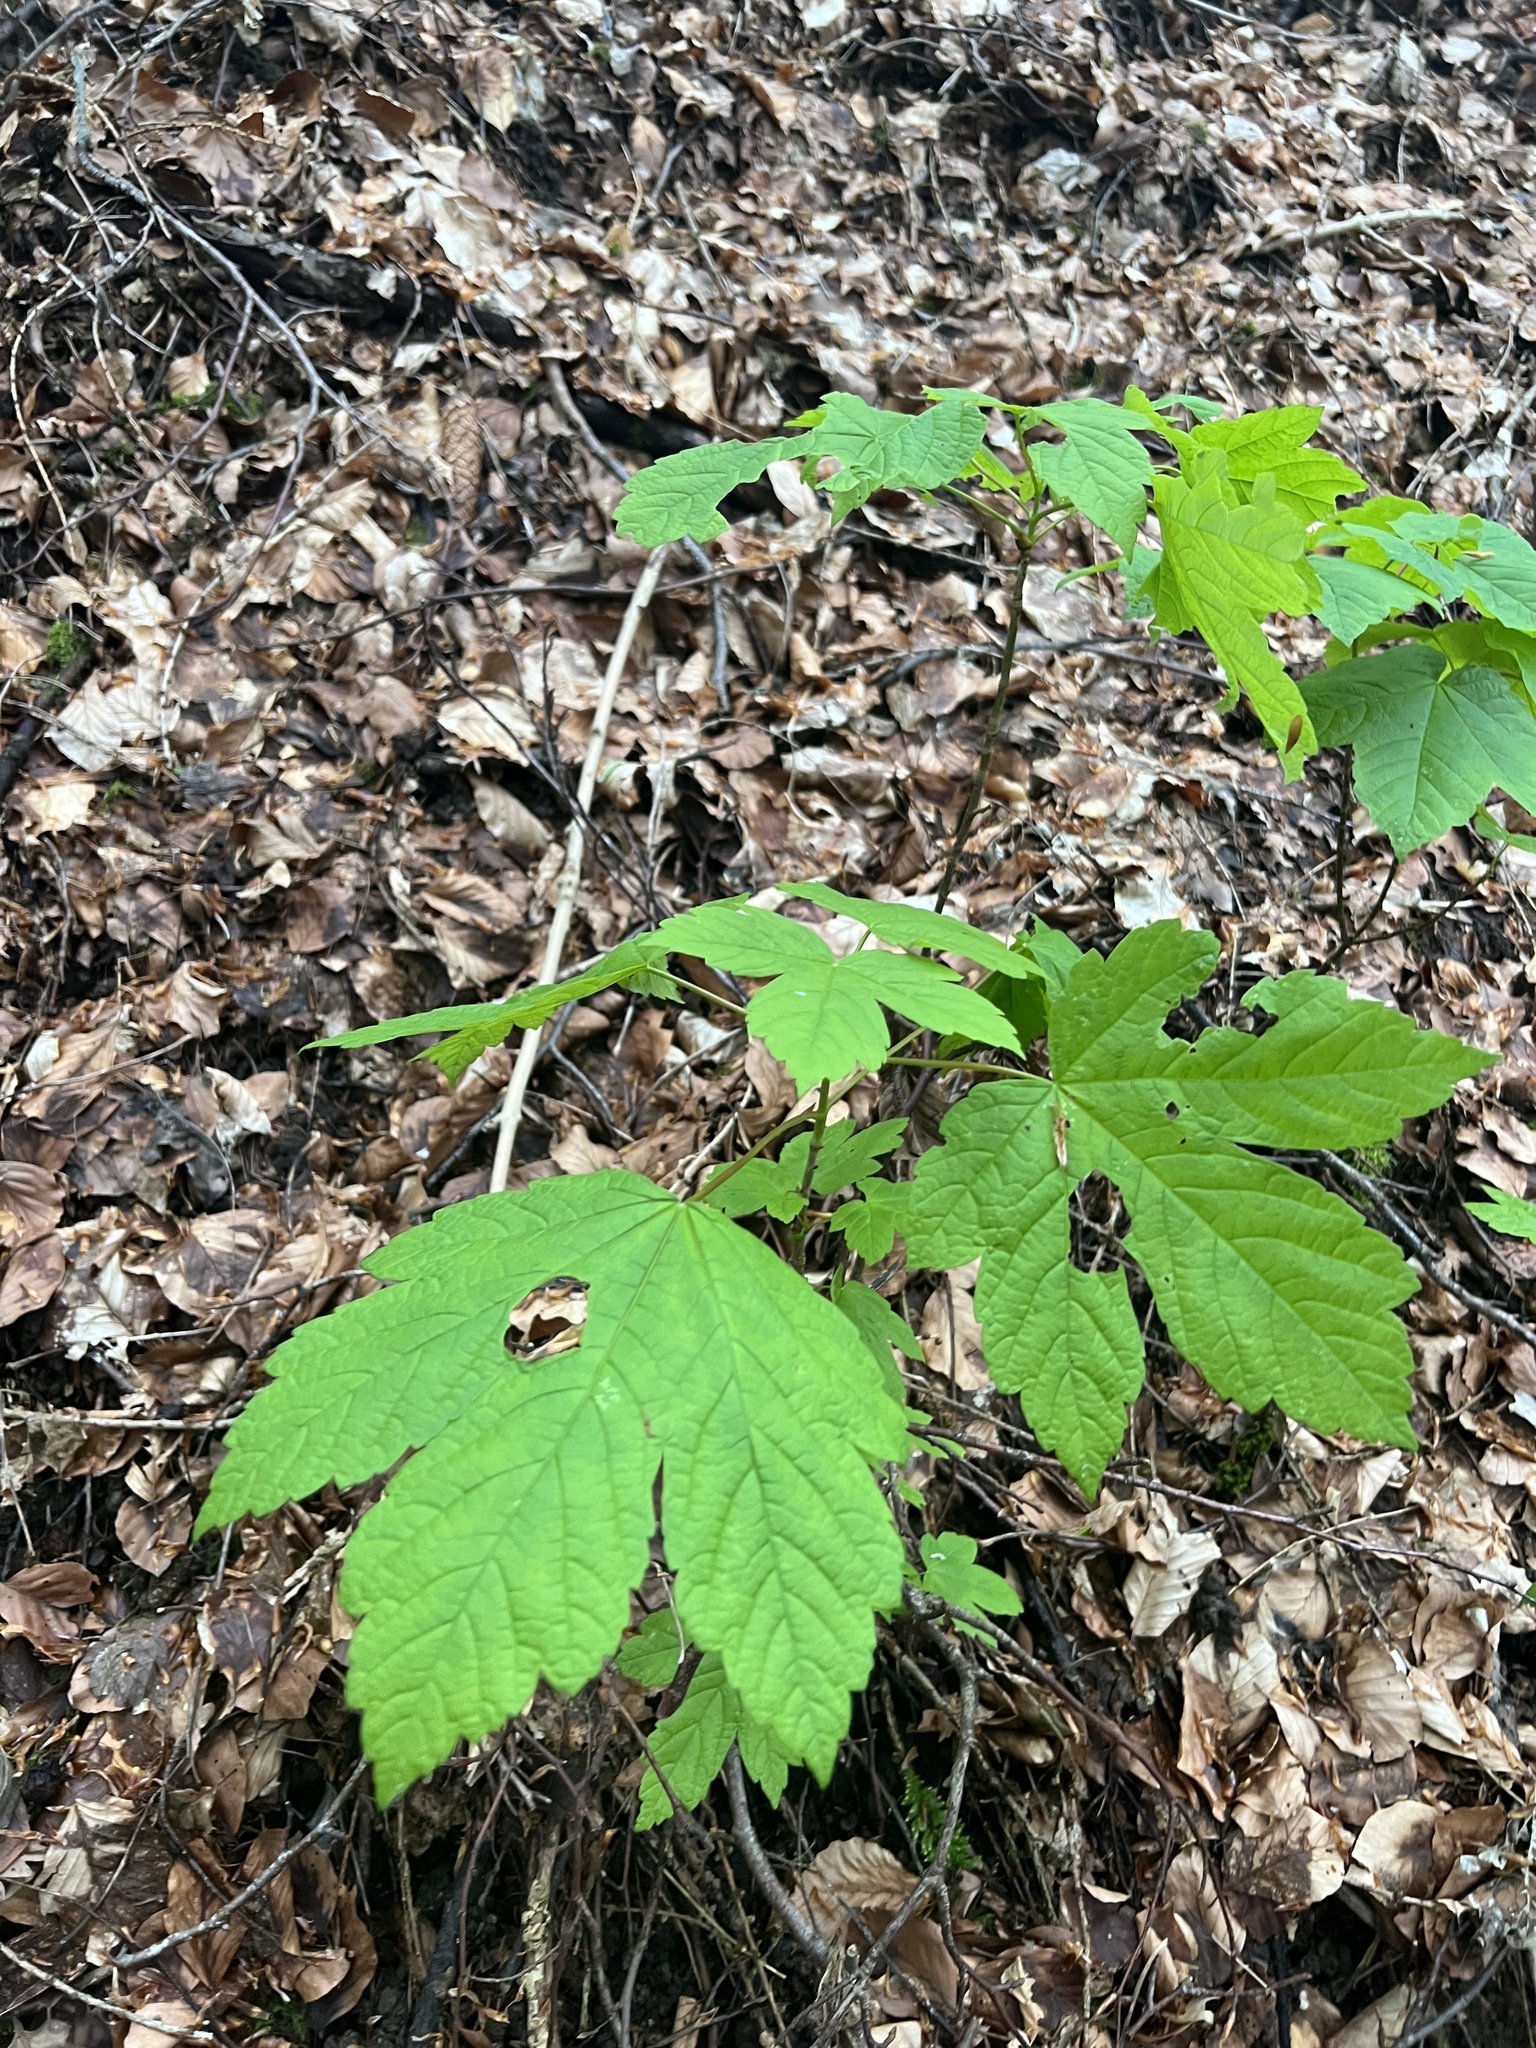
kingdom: Plantae
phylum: Tracheophyta
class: Magnoliopsida
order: Sapindales
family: Sapindaceae
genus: Acer
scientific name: Acer pseudoplatanus
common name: Sycamore
